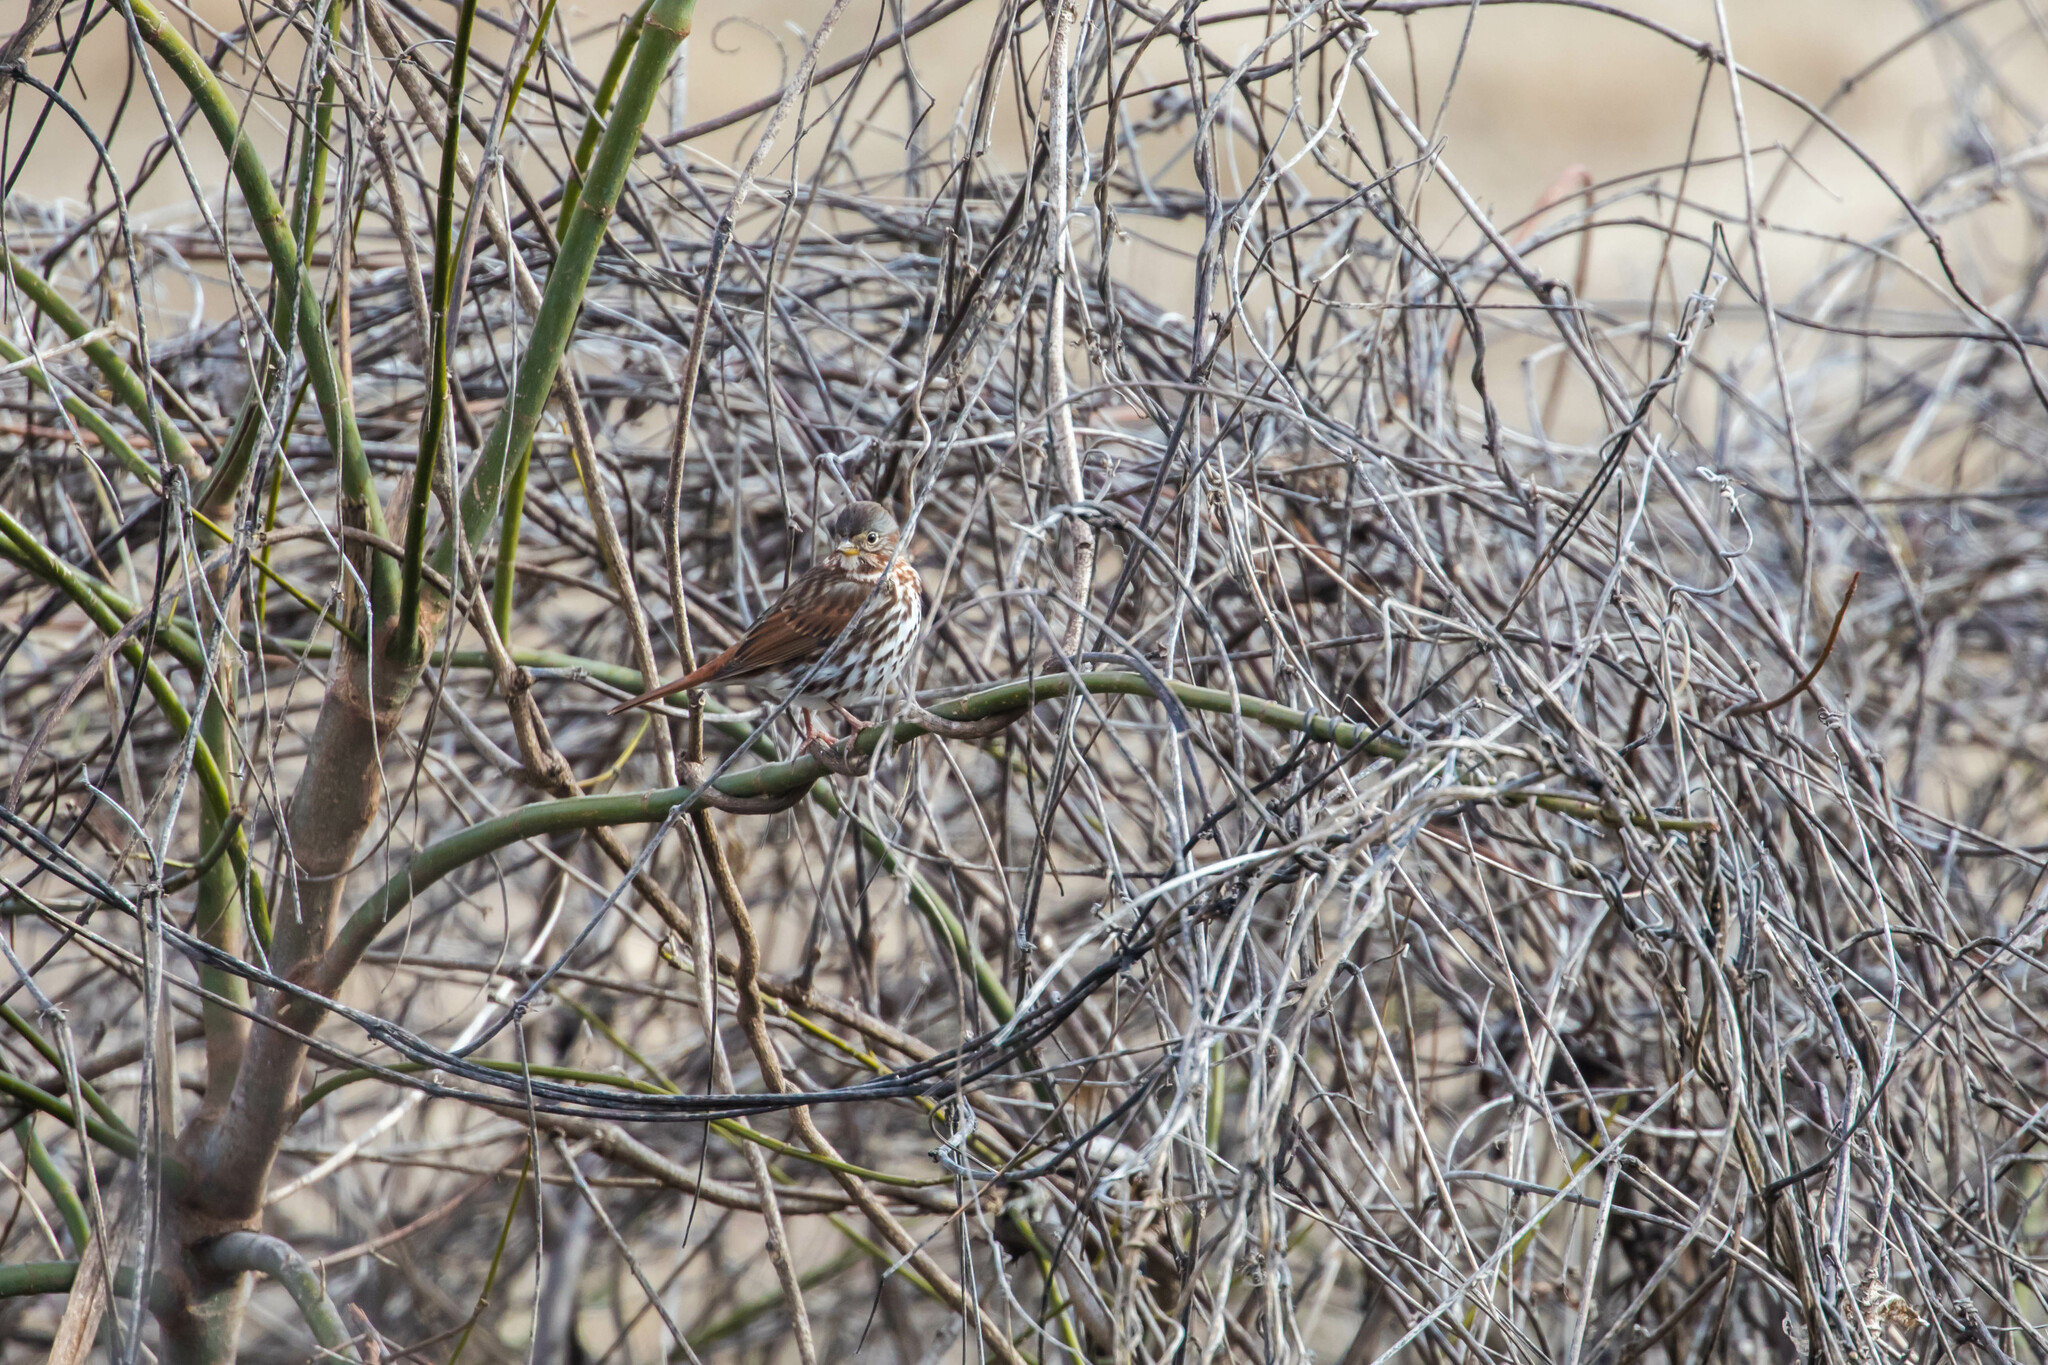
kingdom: Animalia
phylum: Chordata
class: Aves
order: Passeriformes
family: Passerellidae
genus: Passerella
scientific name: Passerella iliaca
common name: Fox sparrow
